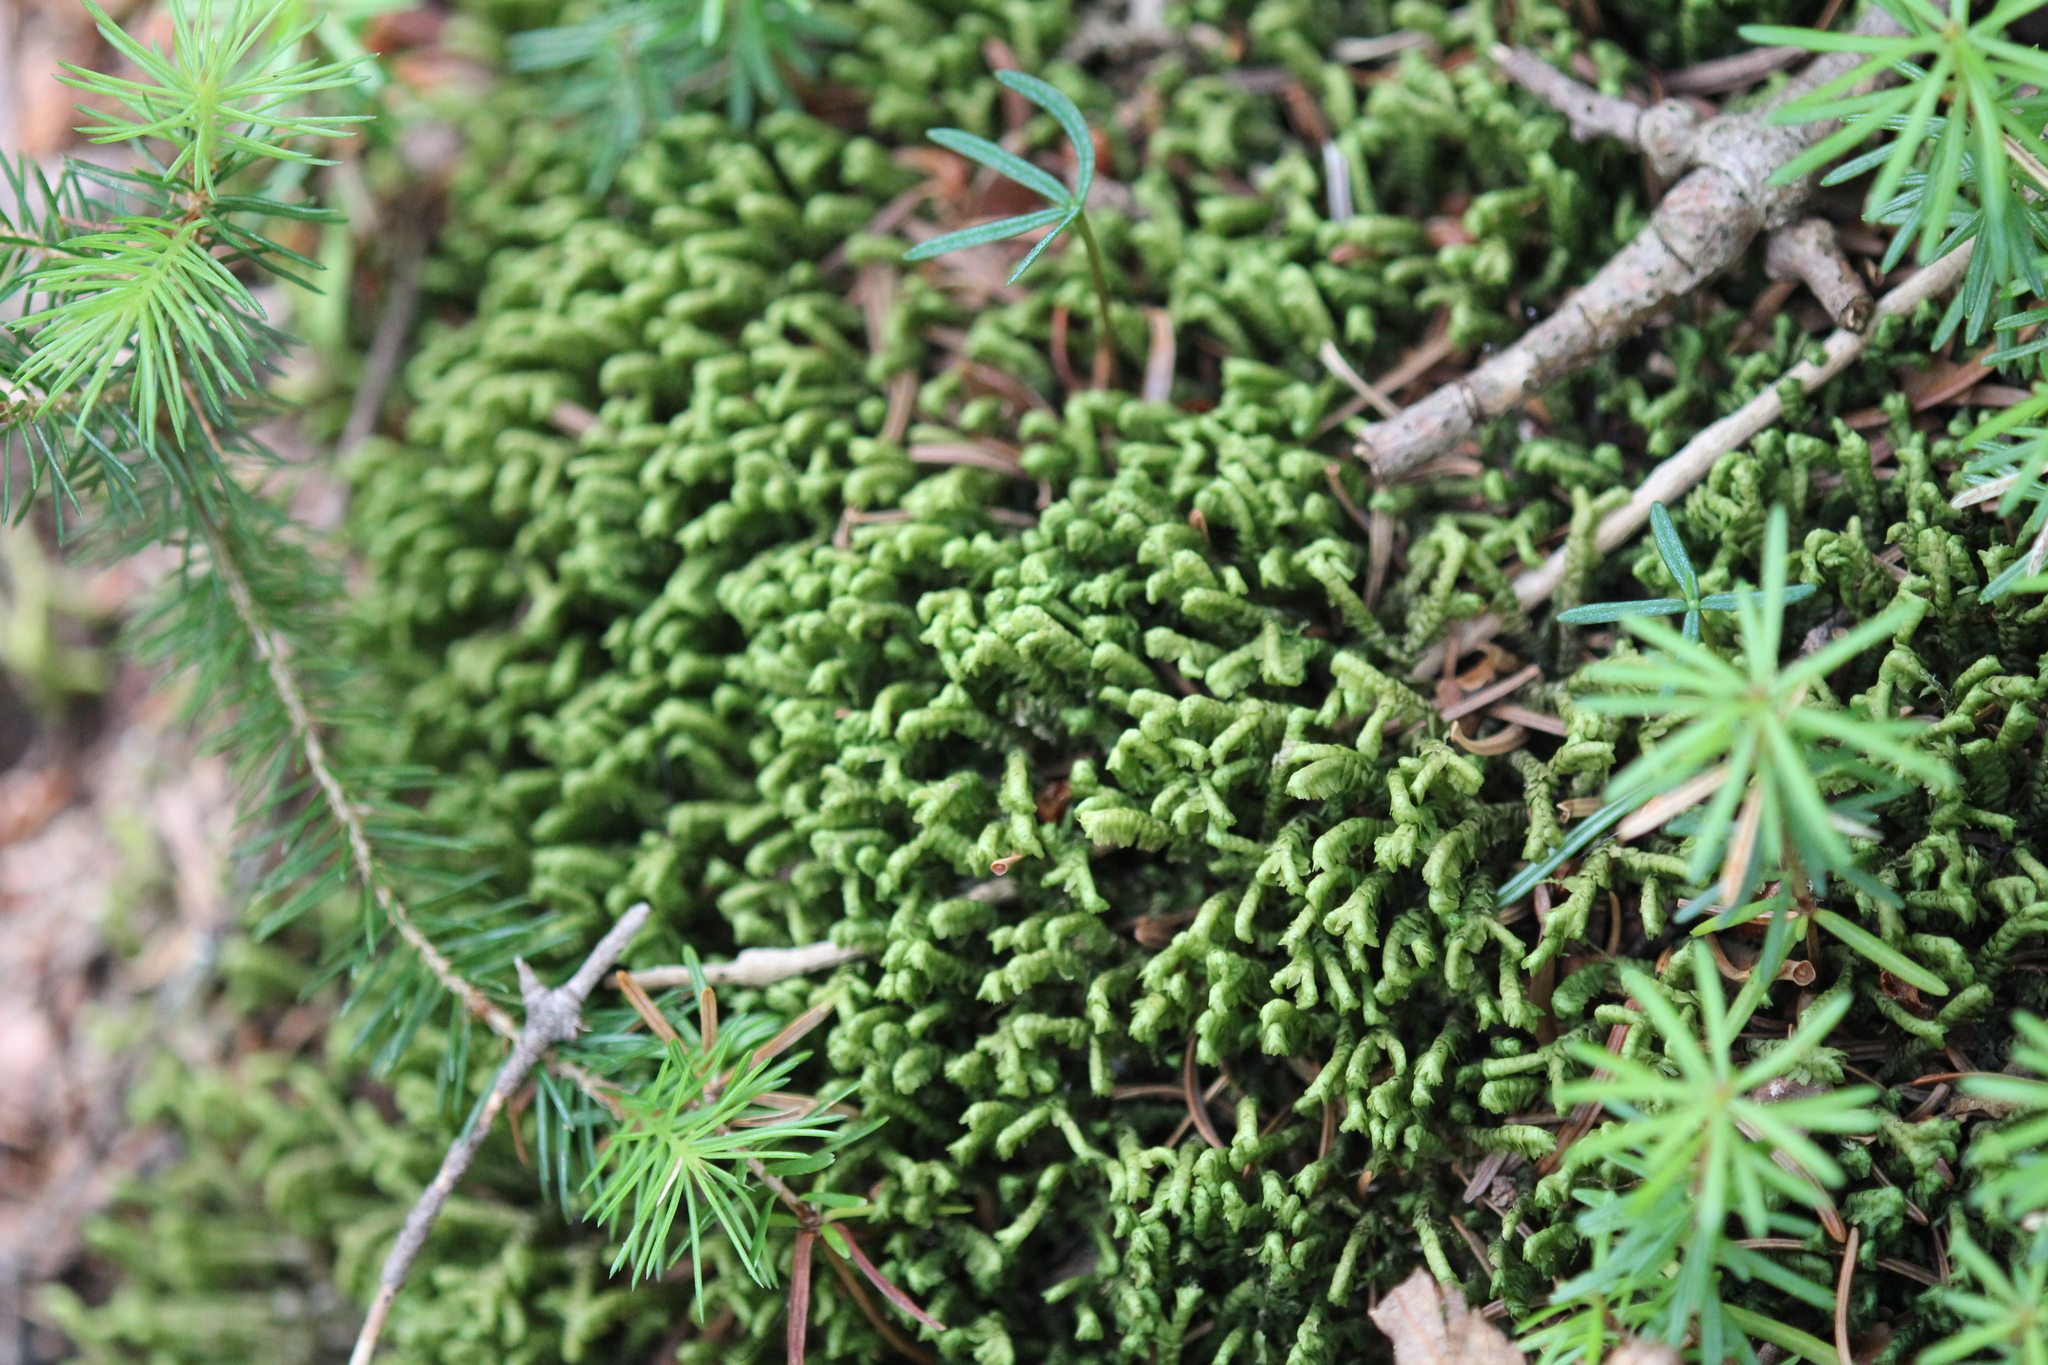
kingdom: Plantae
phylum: Marchantiophyta
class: Jungermanniopsida
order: Jungermanniales
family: Lepidoziaceae
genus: Bazzania
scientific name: Bazzania trilobata
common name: Three-lobed whipwort
